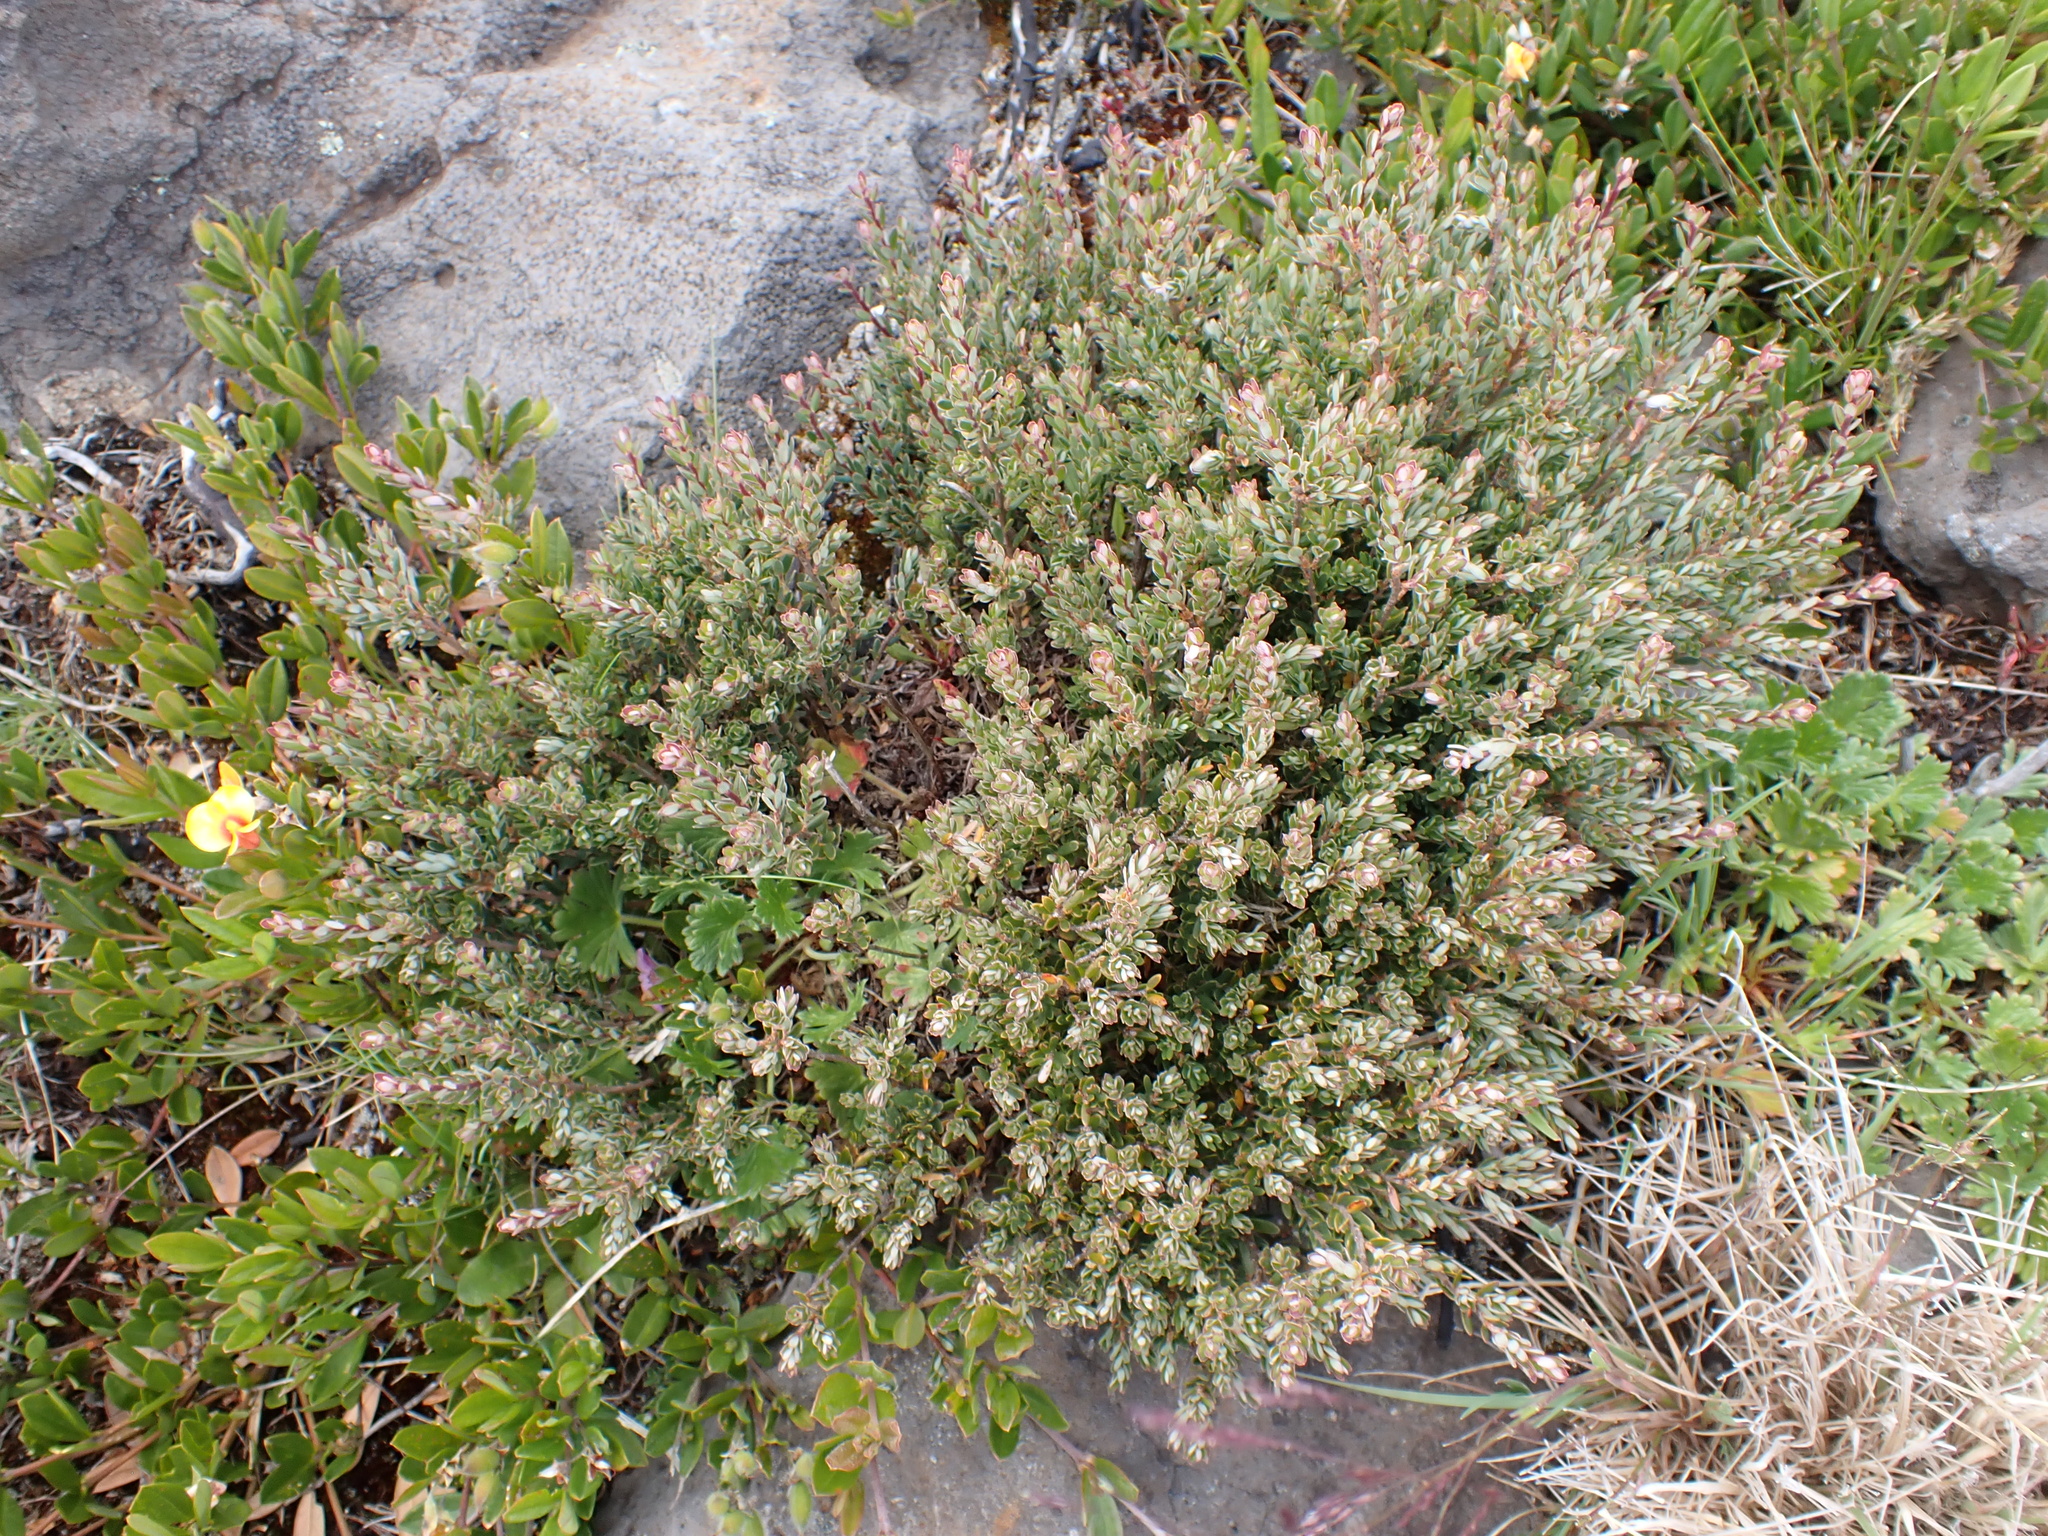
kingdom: Plantae
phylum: Tracheophyta
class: Magnoliopsida
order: Ericales
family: Ericaceae
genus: Acrothamnus
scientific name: Acrothamnus montanus
